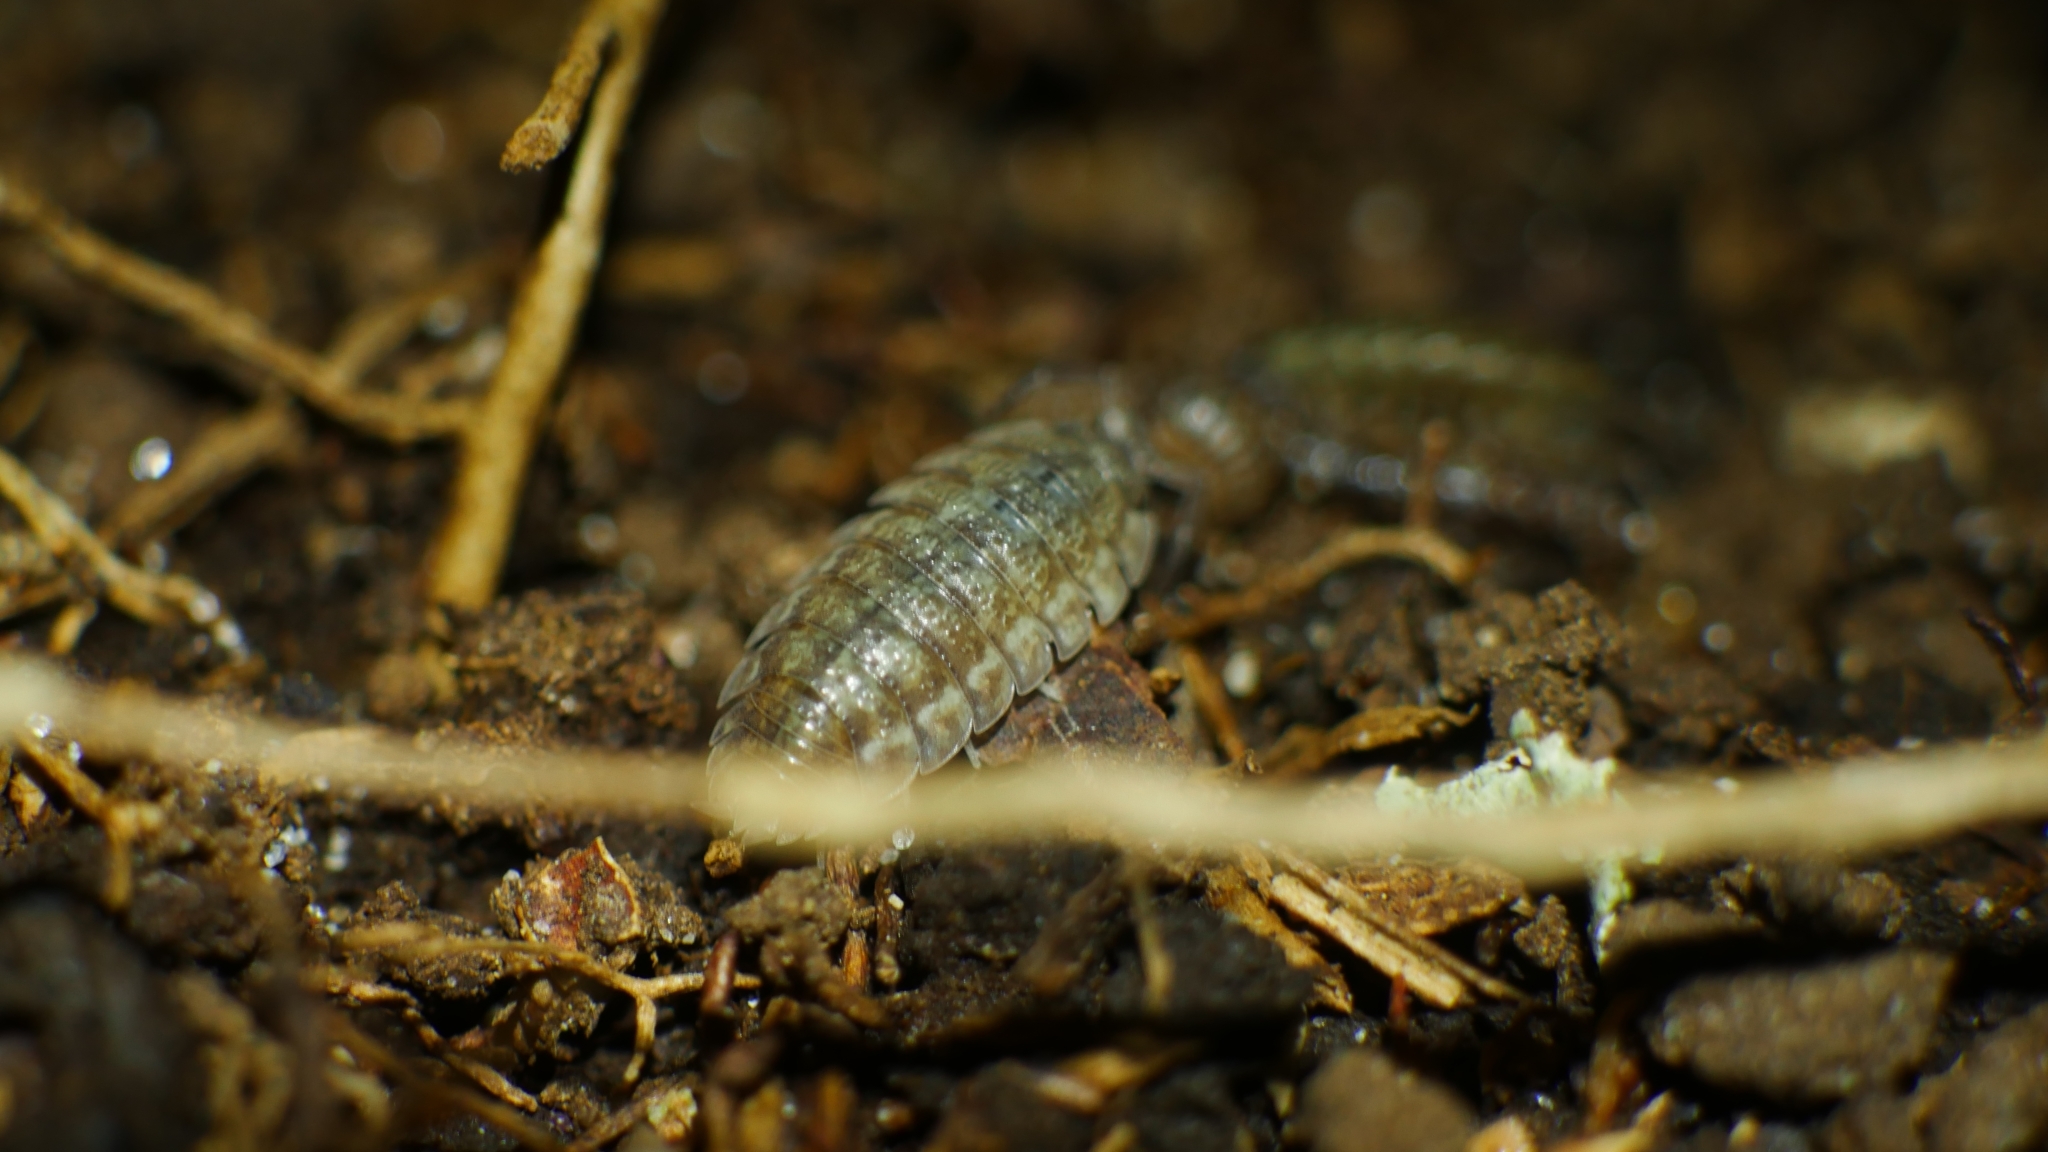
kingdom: Animalia
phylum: Arthropoda
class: Malacostraca
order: Isopoda
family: Porcellionidae
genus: Porcellio
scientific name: Porcellio scaber
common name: Common rough woodlouse
